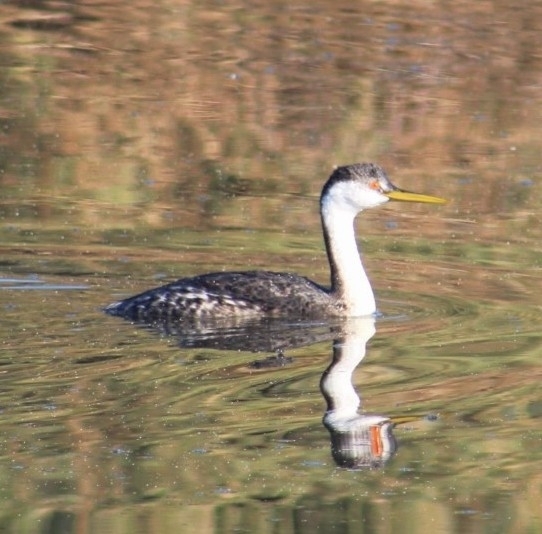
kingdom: Animalia
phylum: Chordata
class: Aves
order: Podicipediformes
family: Podicipedidae
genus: Aechmophorus
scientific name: Aechmophorus occidentalis
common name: Western grebe
